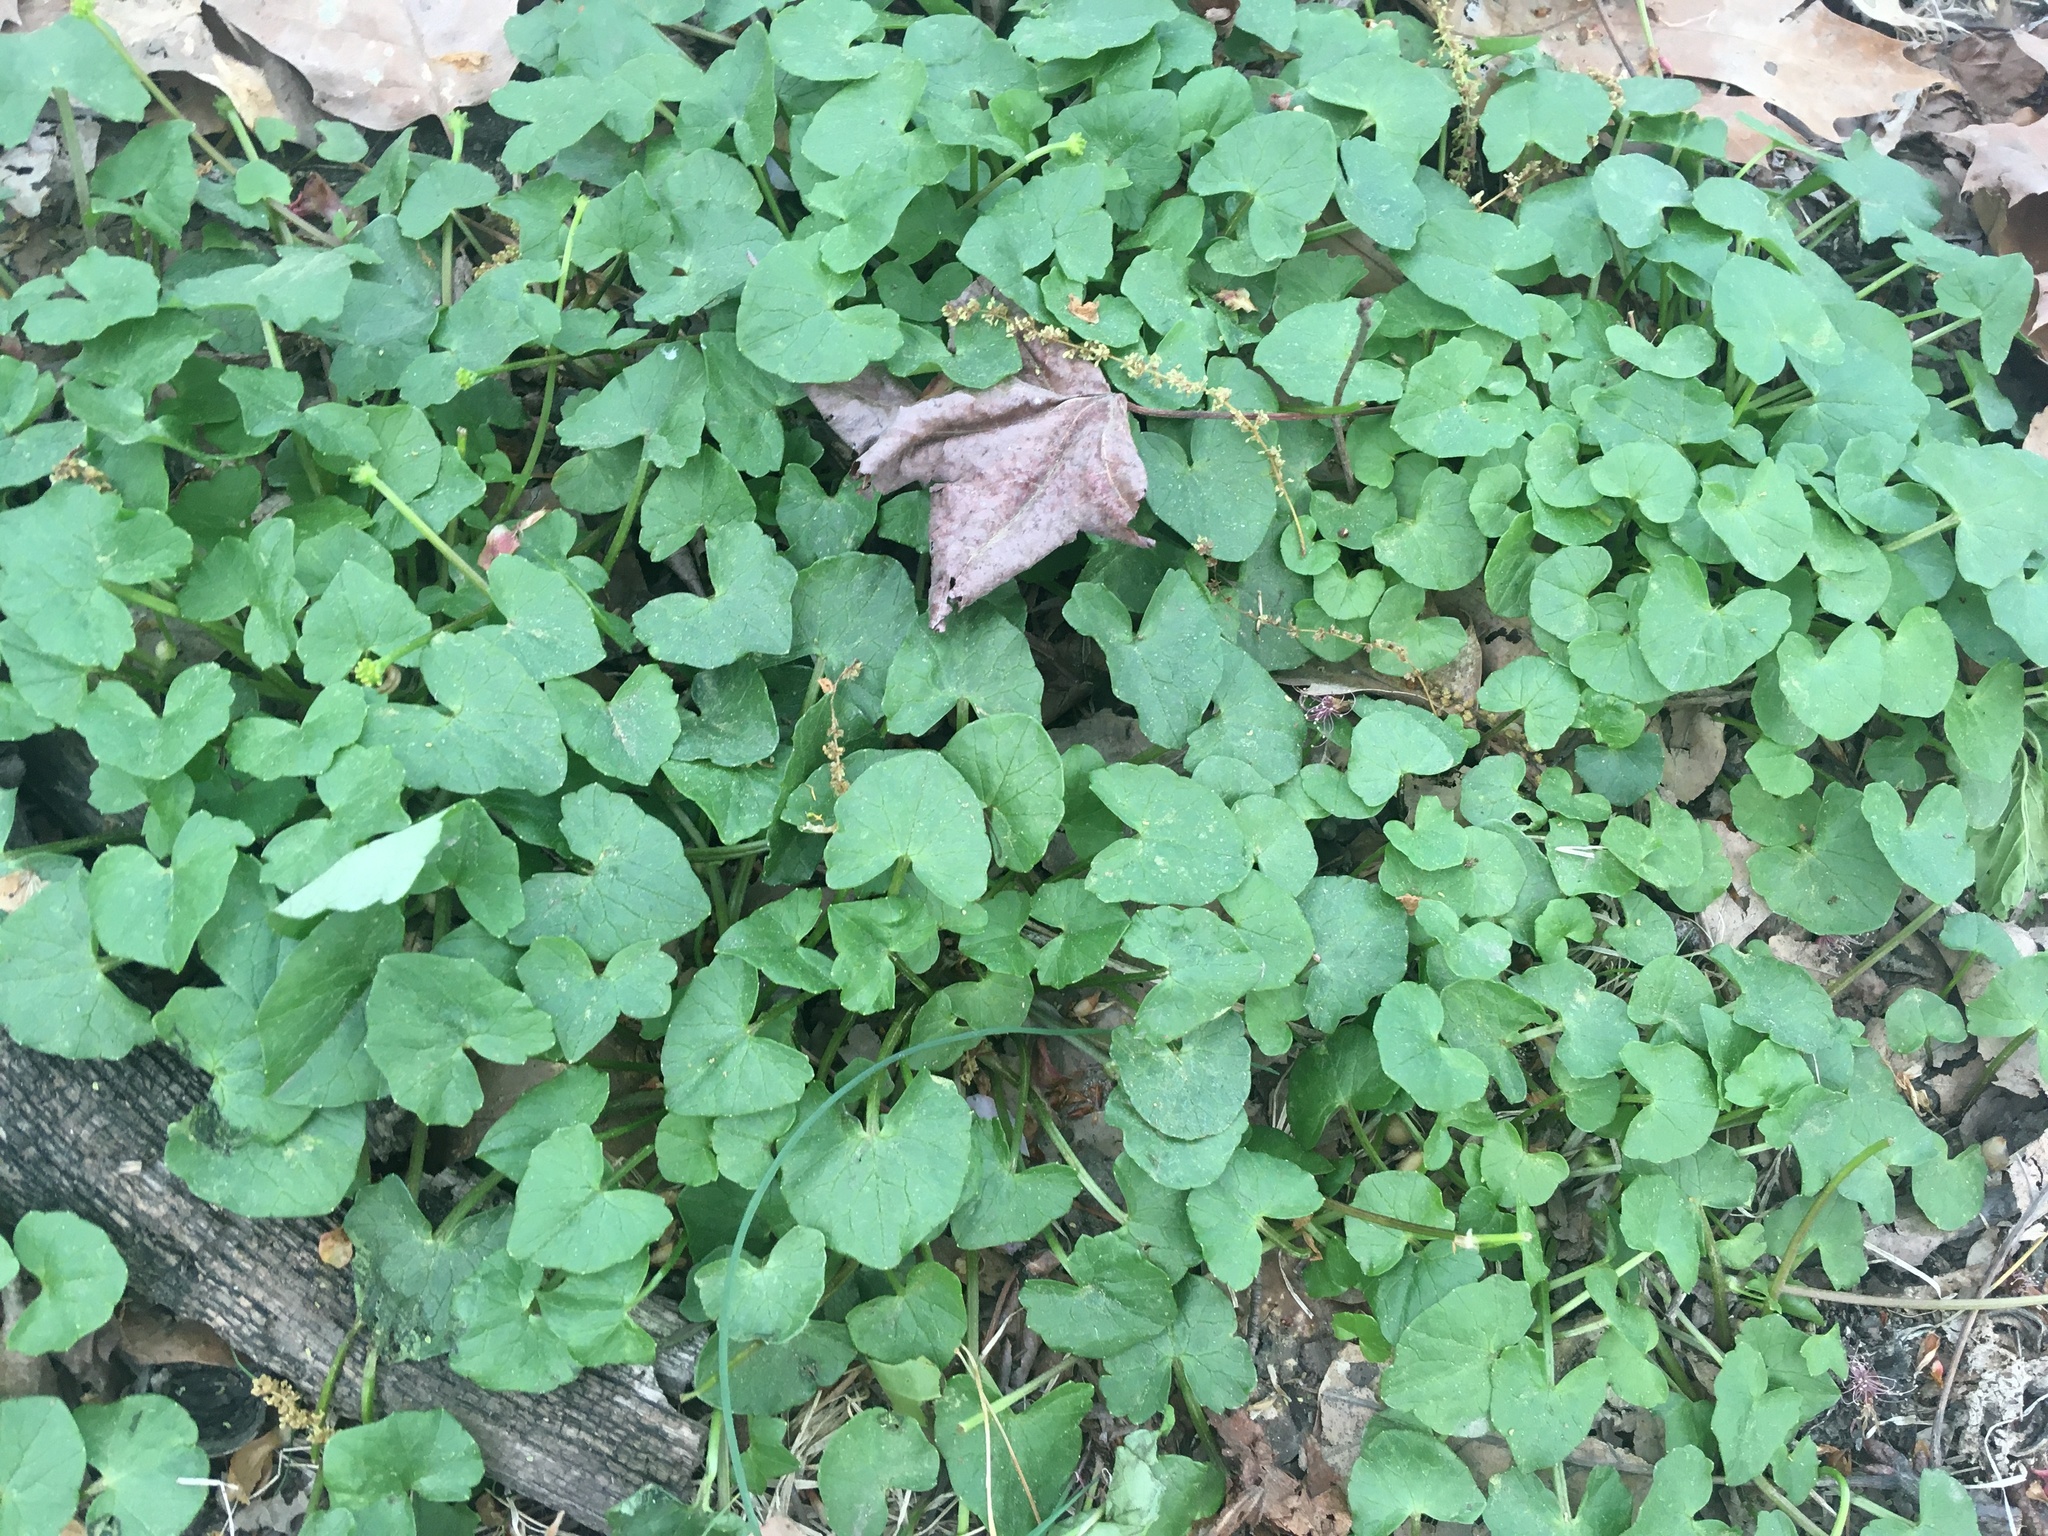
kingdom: Plantae
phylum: Tracheophyta
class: Magnoliopsida
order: Ranunculales
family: Ranunculaceae
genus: Ficaria
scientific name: Ficaria verna
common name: Lesser celandine
